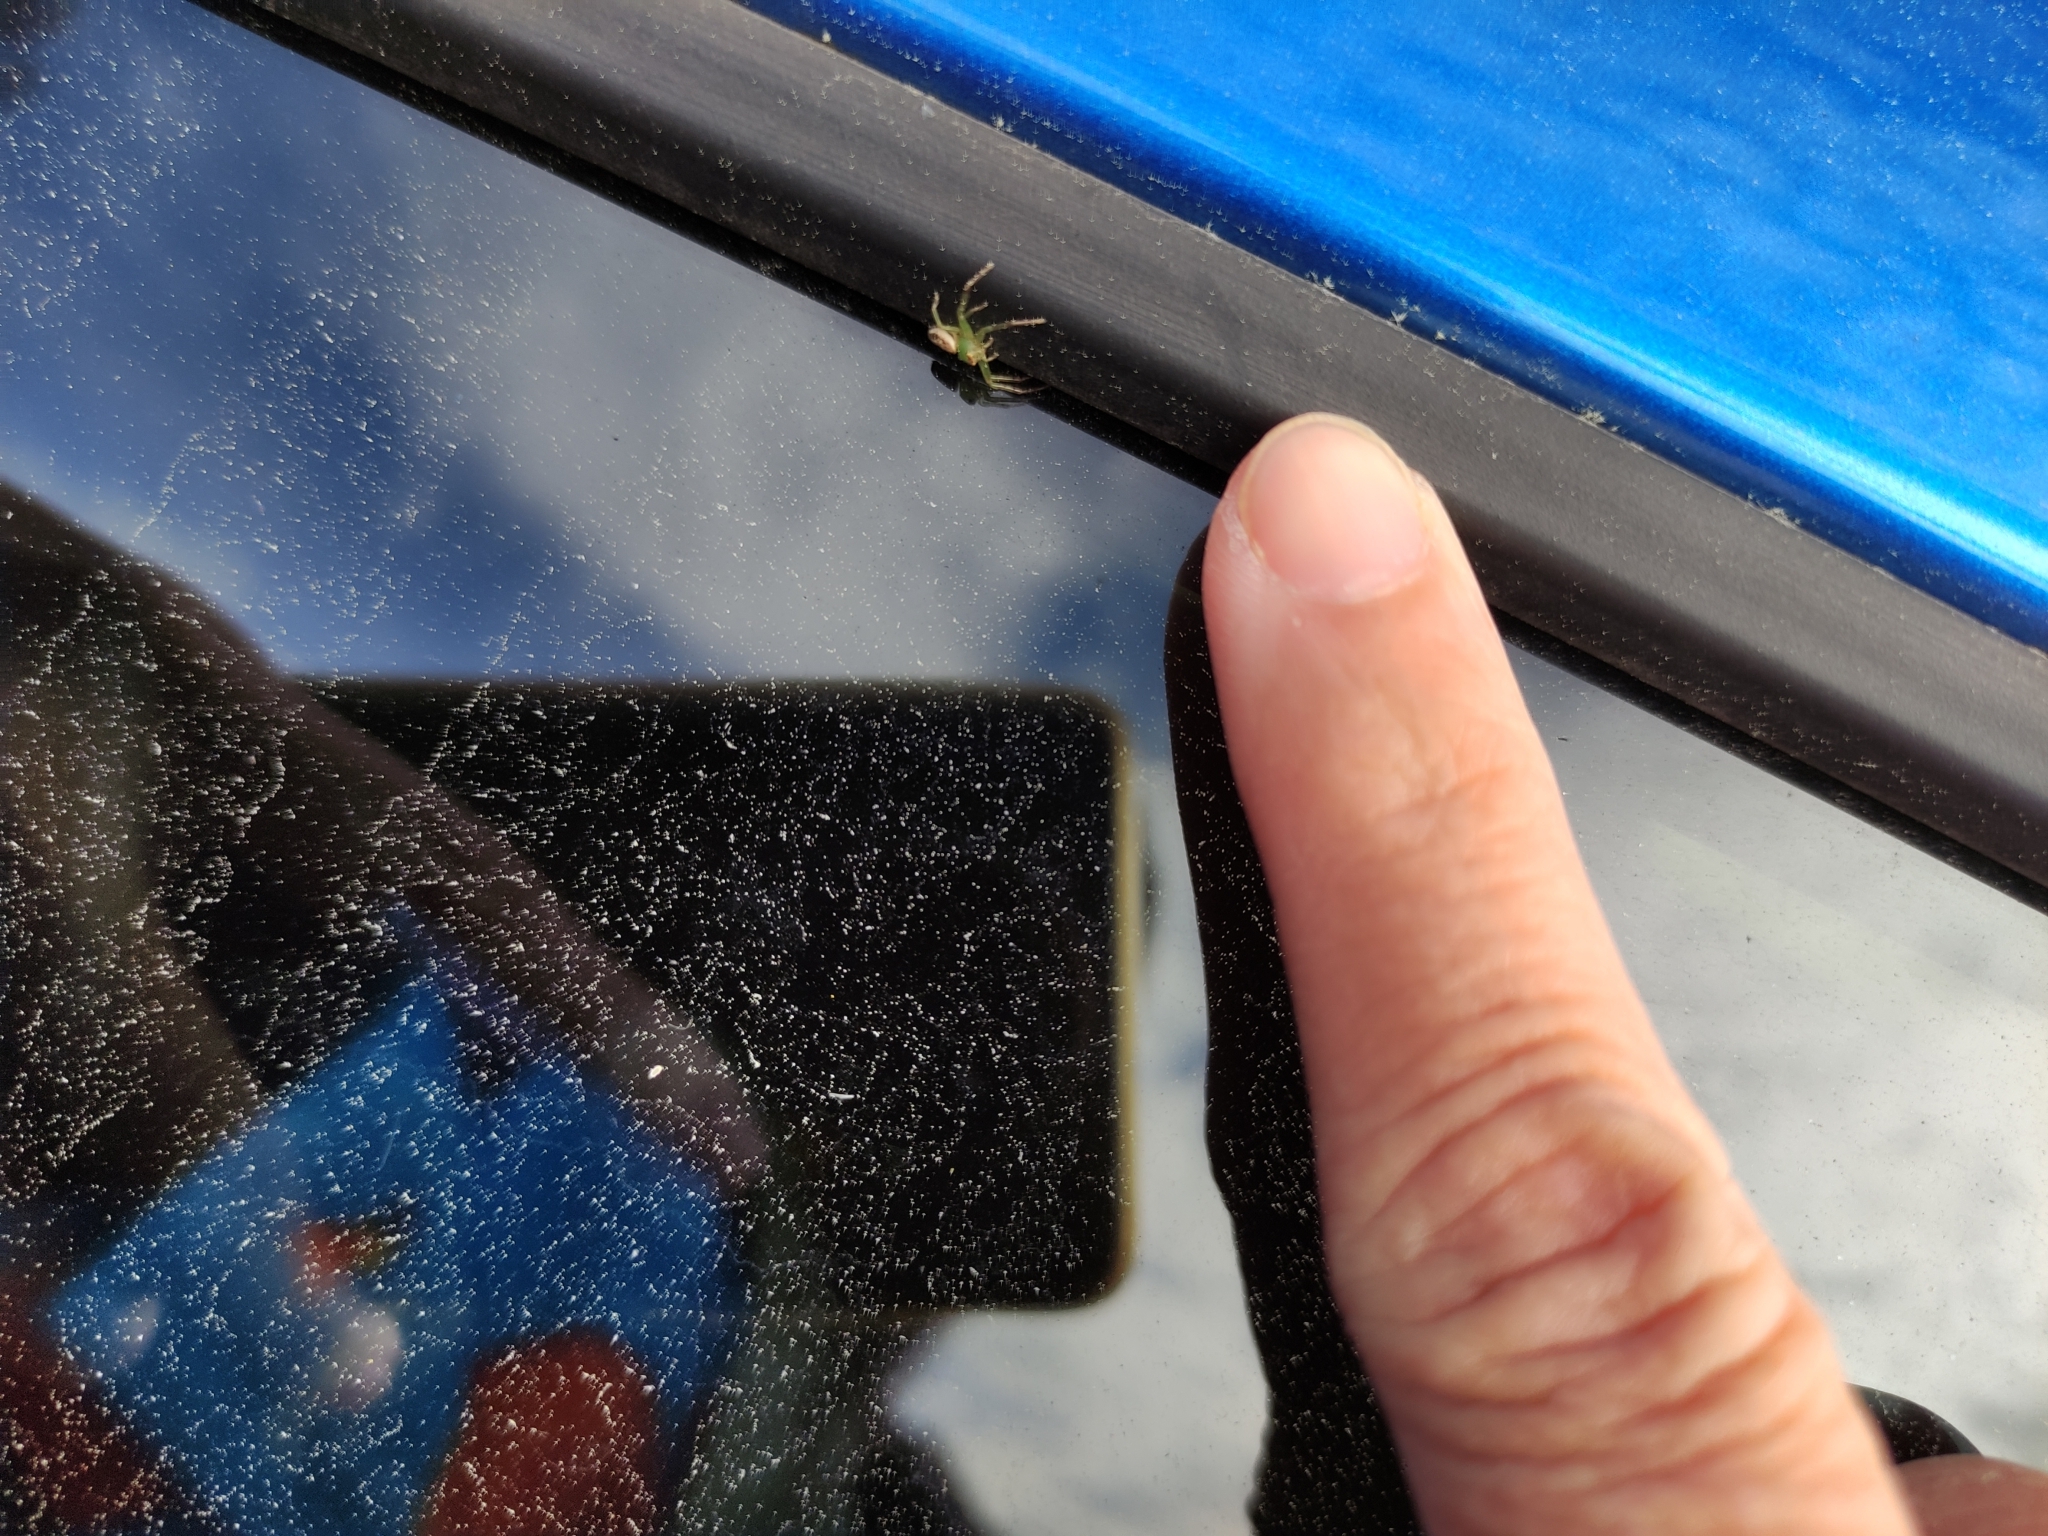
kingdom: Animalia
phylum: Arthropoda
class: Arachnida
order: Araneae
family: Thomisidae
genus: Diaea
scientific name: Diaea ambara
